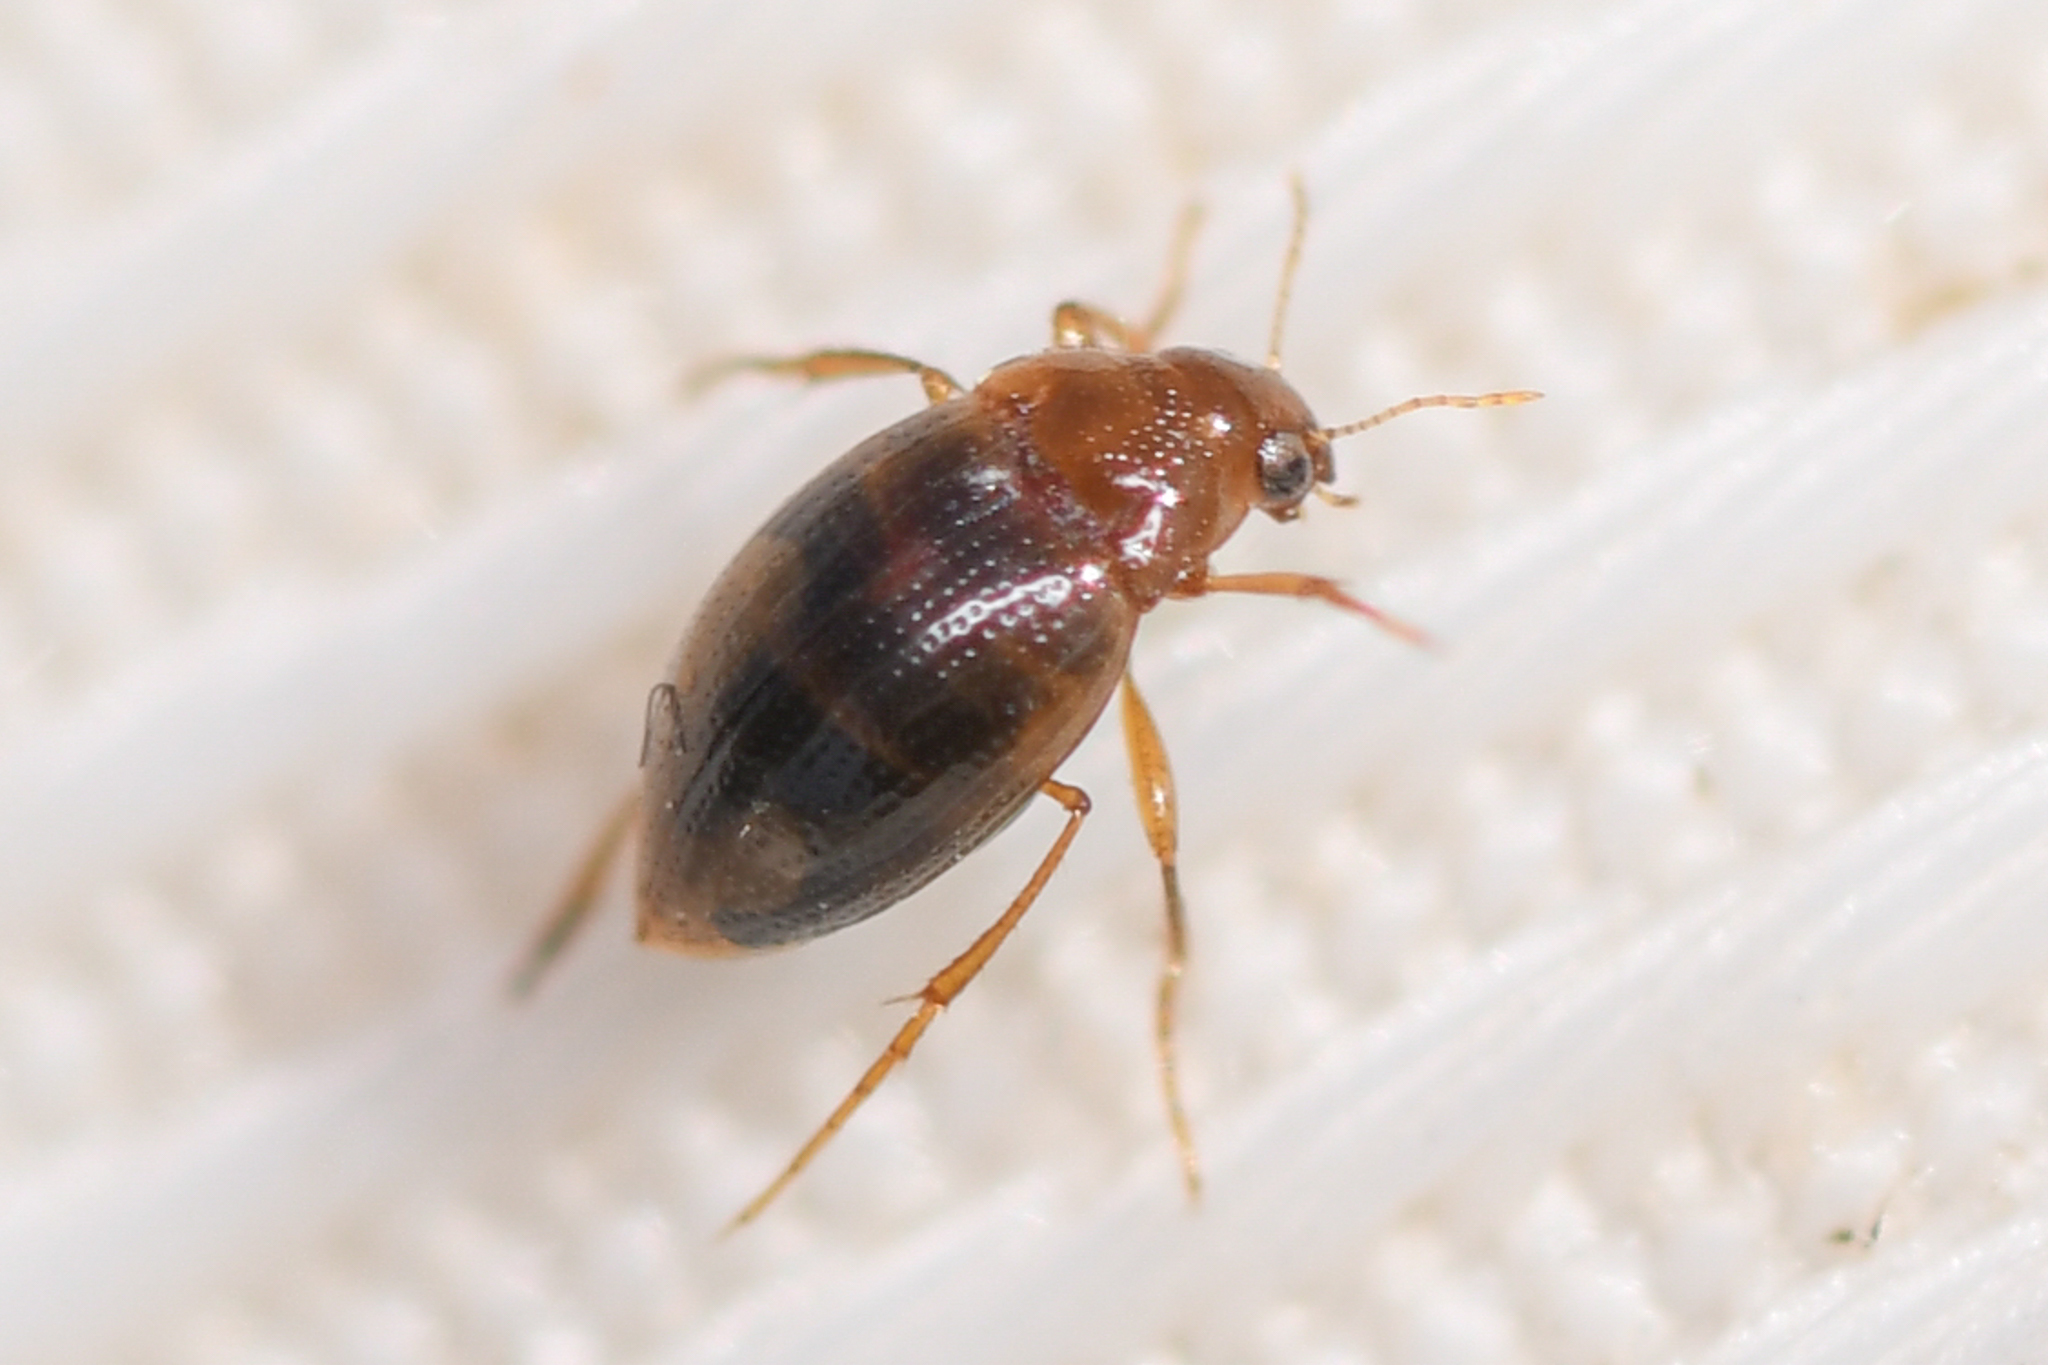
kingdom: Animalia
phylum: Arthropoda
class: Insecta
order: Coleoptera
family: Haliplidae
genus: Haliplus
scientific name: Haliplus
